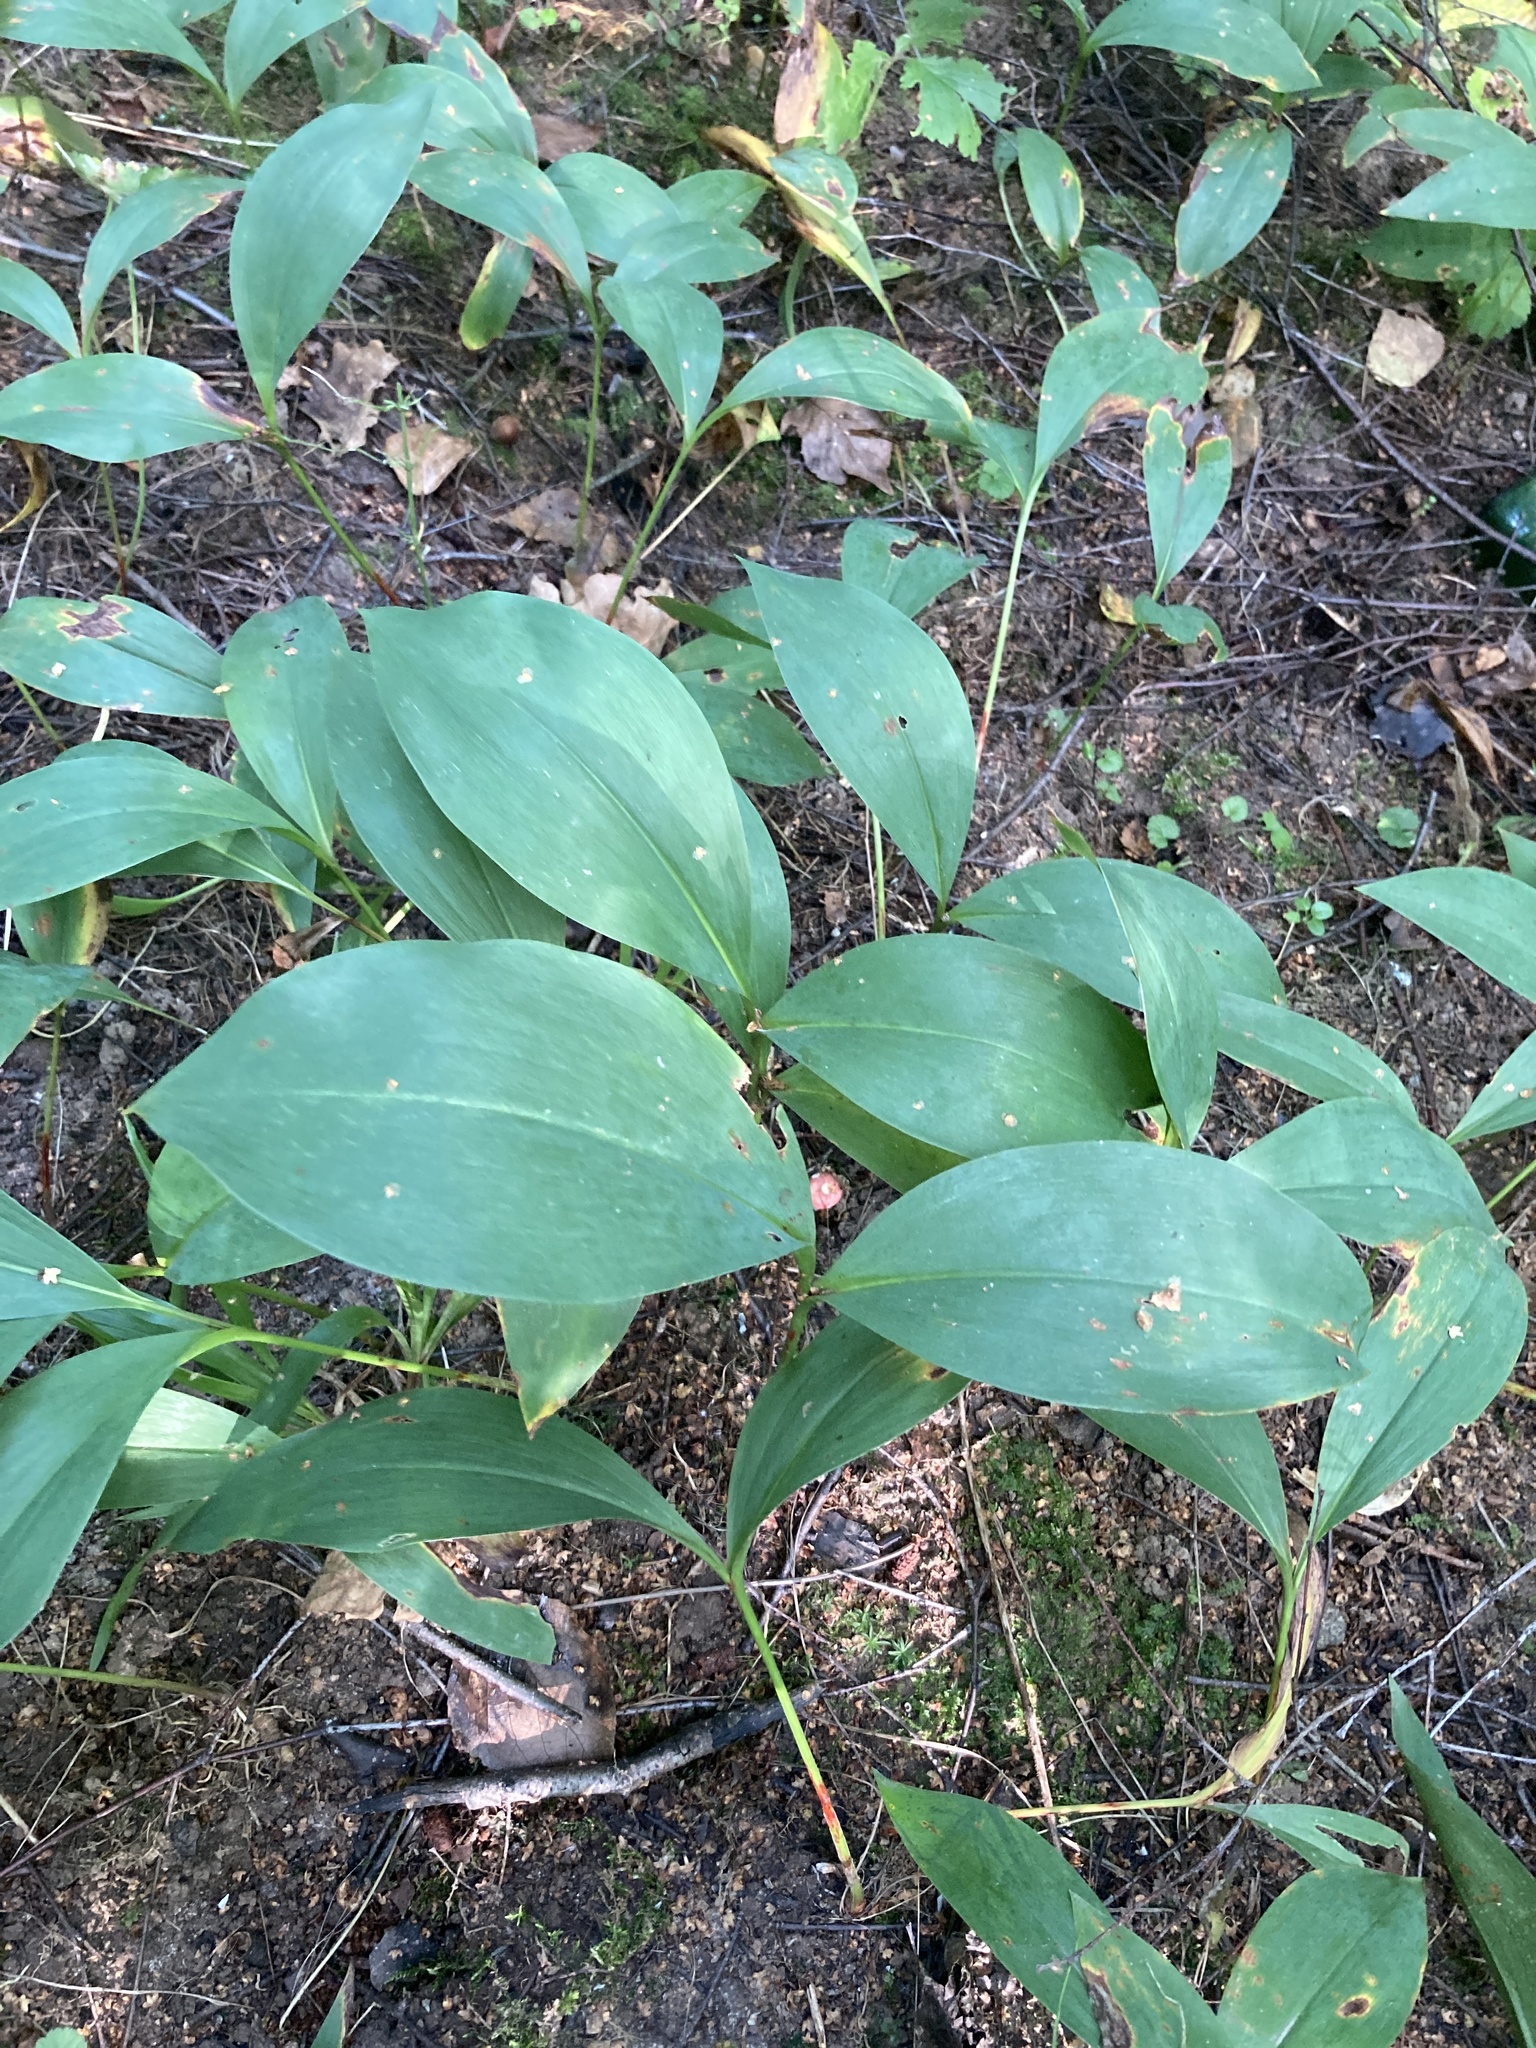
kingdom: Plantae
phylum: Tracheophyta
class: Liliopsida
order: Asparagales
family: Asparagaceae
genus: Convallaria
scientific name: Convallaria majalis
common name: Lily-of-the-valley
